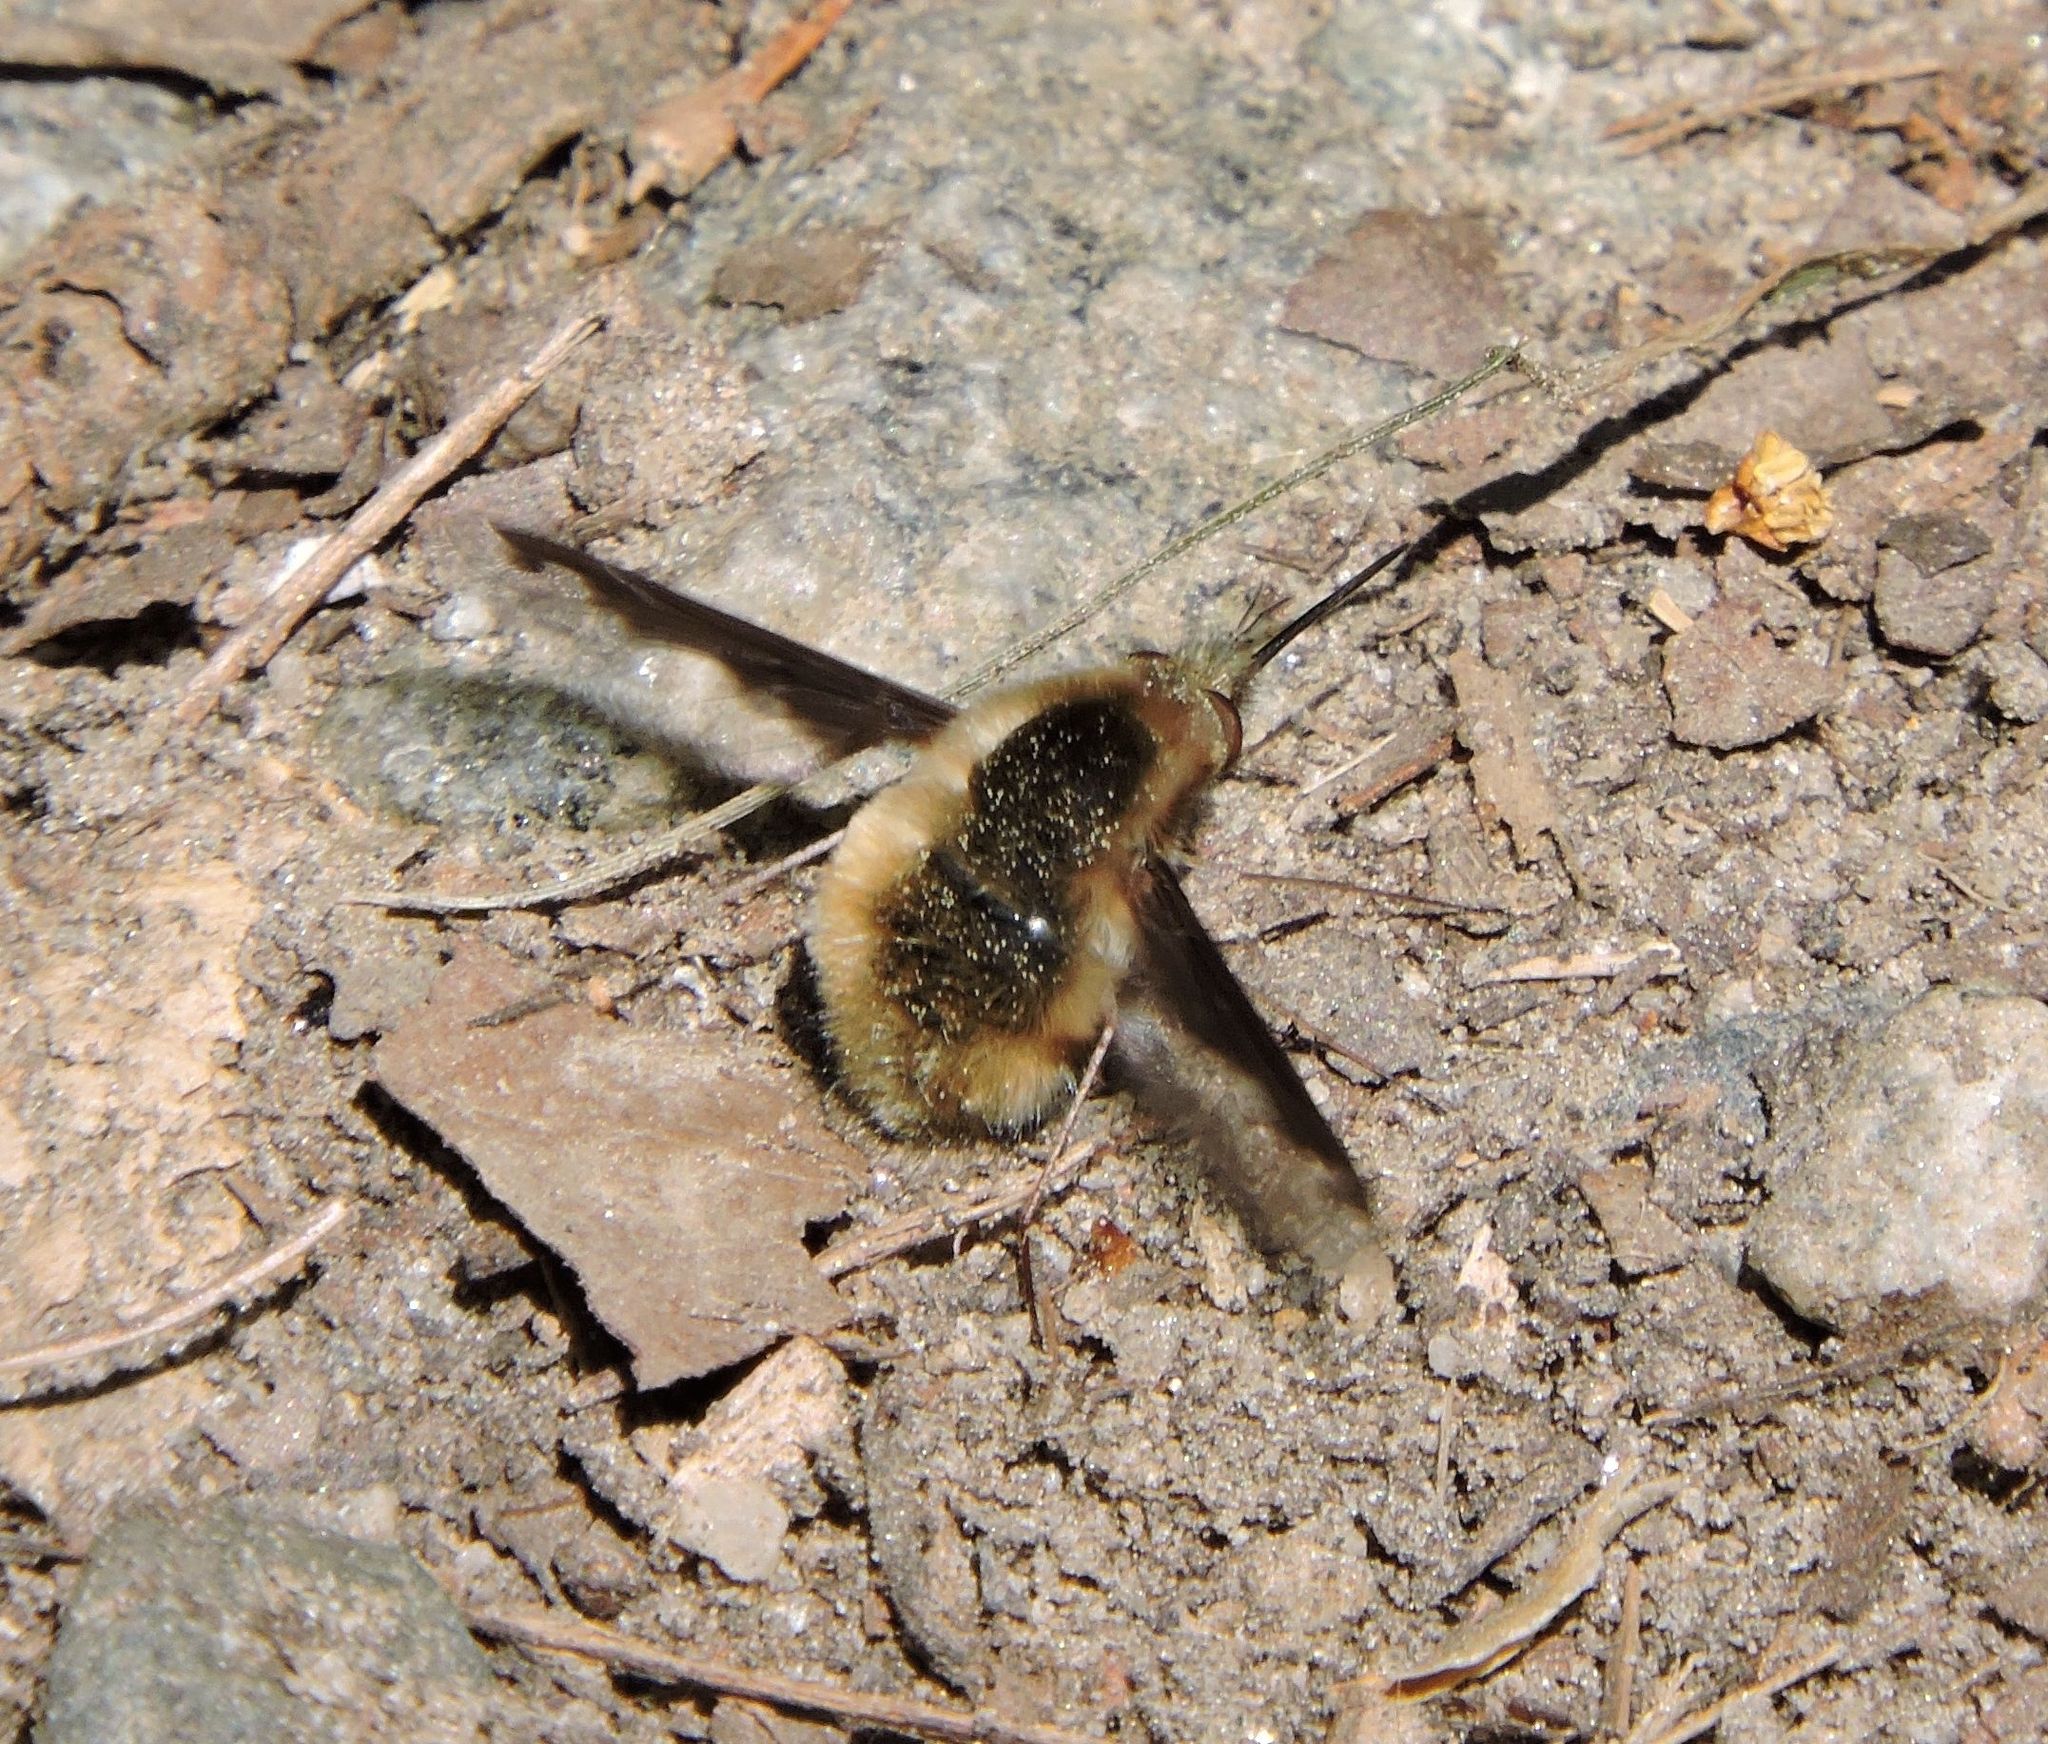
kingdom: Animalia
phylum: Arthropoda
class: Insecta
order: Diptera
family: Bombyliidae
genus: Bombylius
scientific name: Bombylius major
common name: Bee fly
